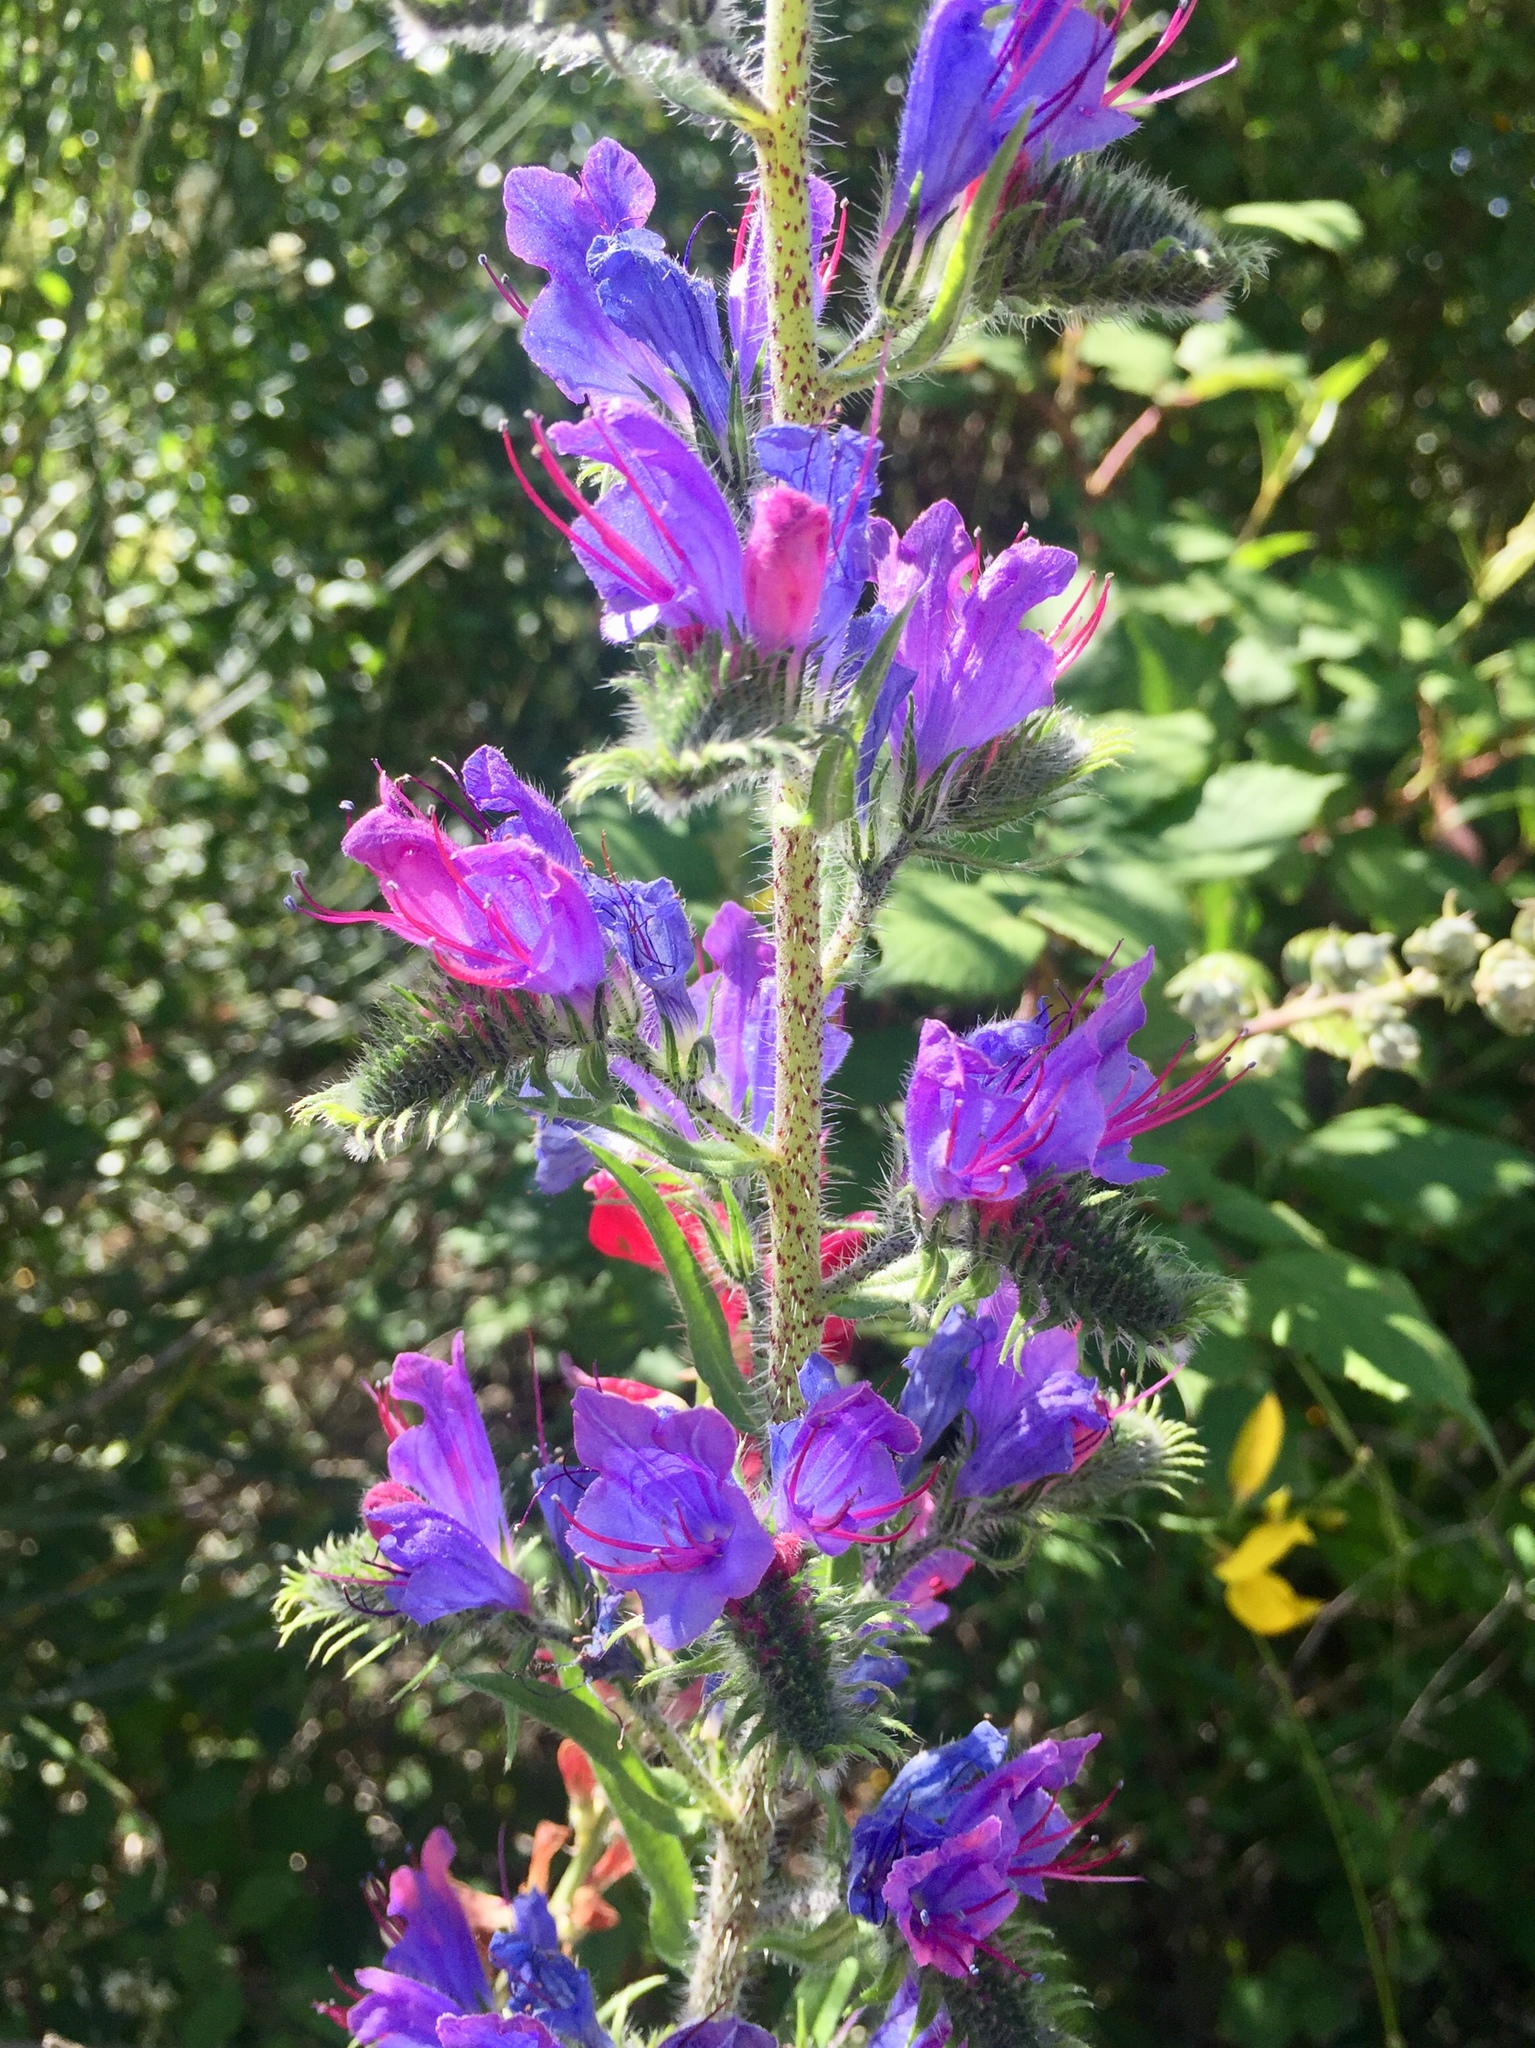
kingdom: Plantae
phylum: Tracheophyta
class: Magnoliopsida
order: Boraginales
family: Boraginaceae
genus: Echium
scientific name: Echium vulgare
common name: Common viper's bugloss
